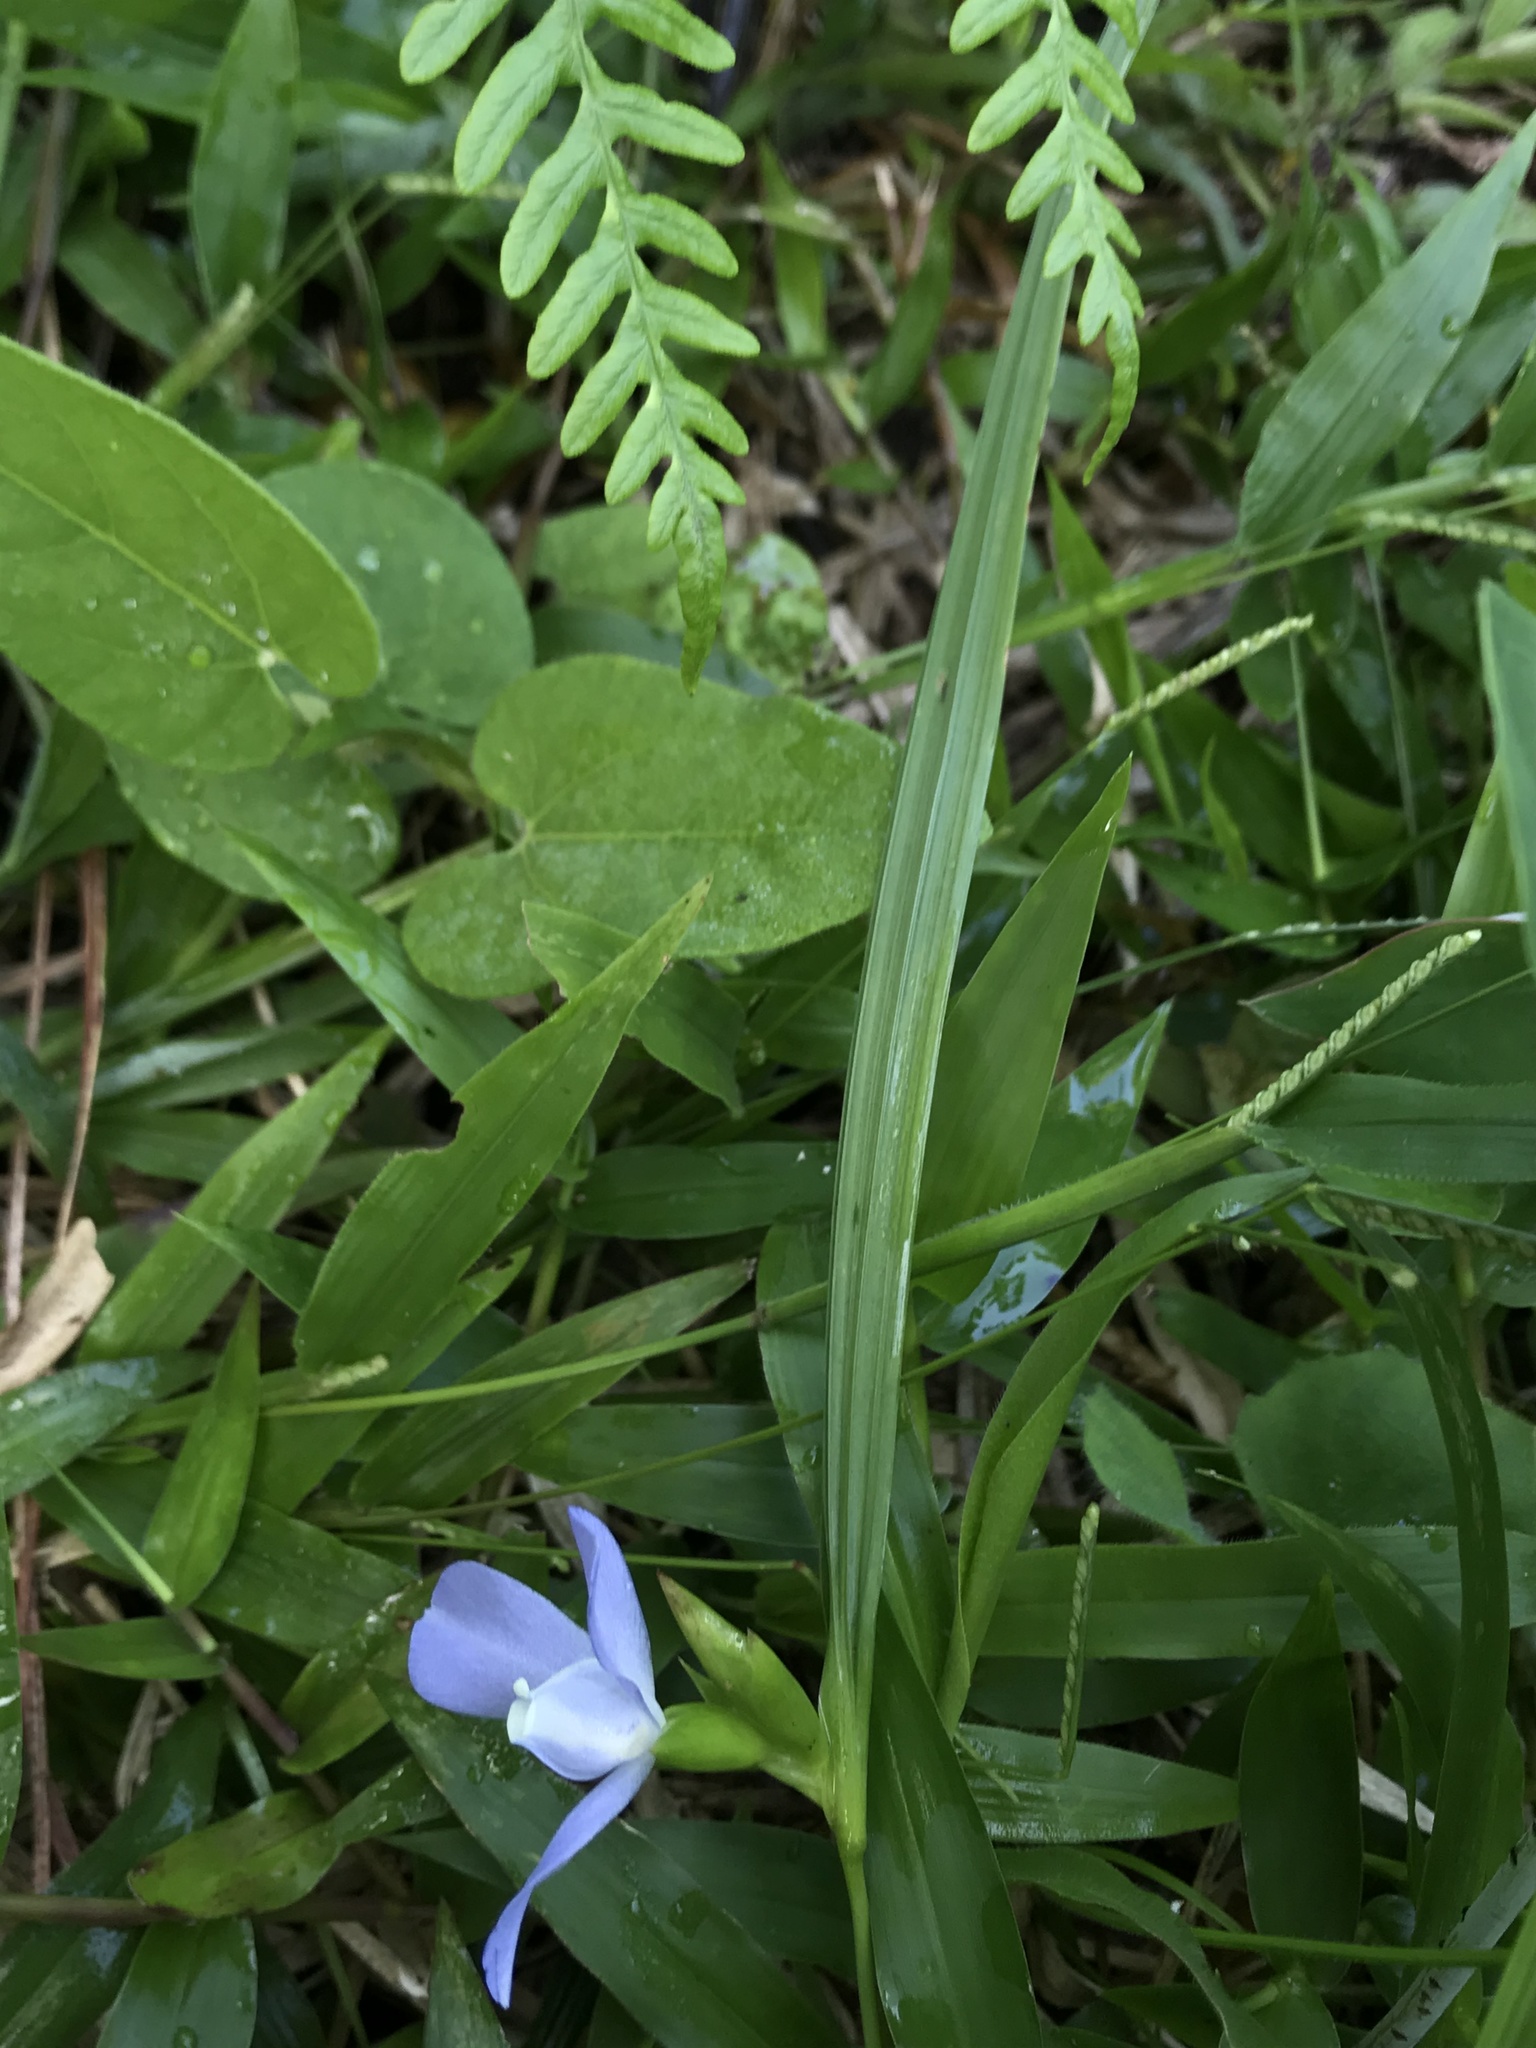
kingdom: Plantae
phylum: Tracheophyta
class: Liliopsida
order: Asparagales
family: Iridaceae
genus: Cipura
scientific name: Cipura paludosa
